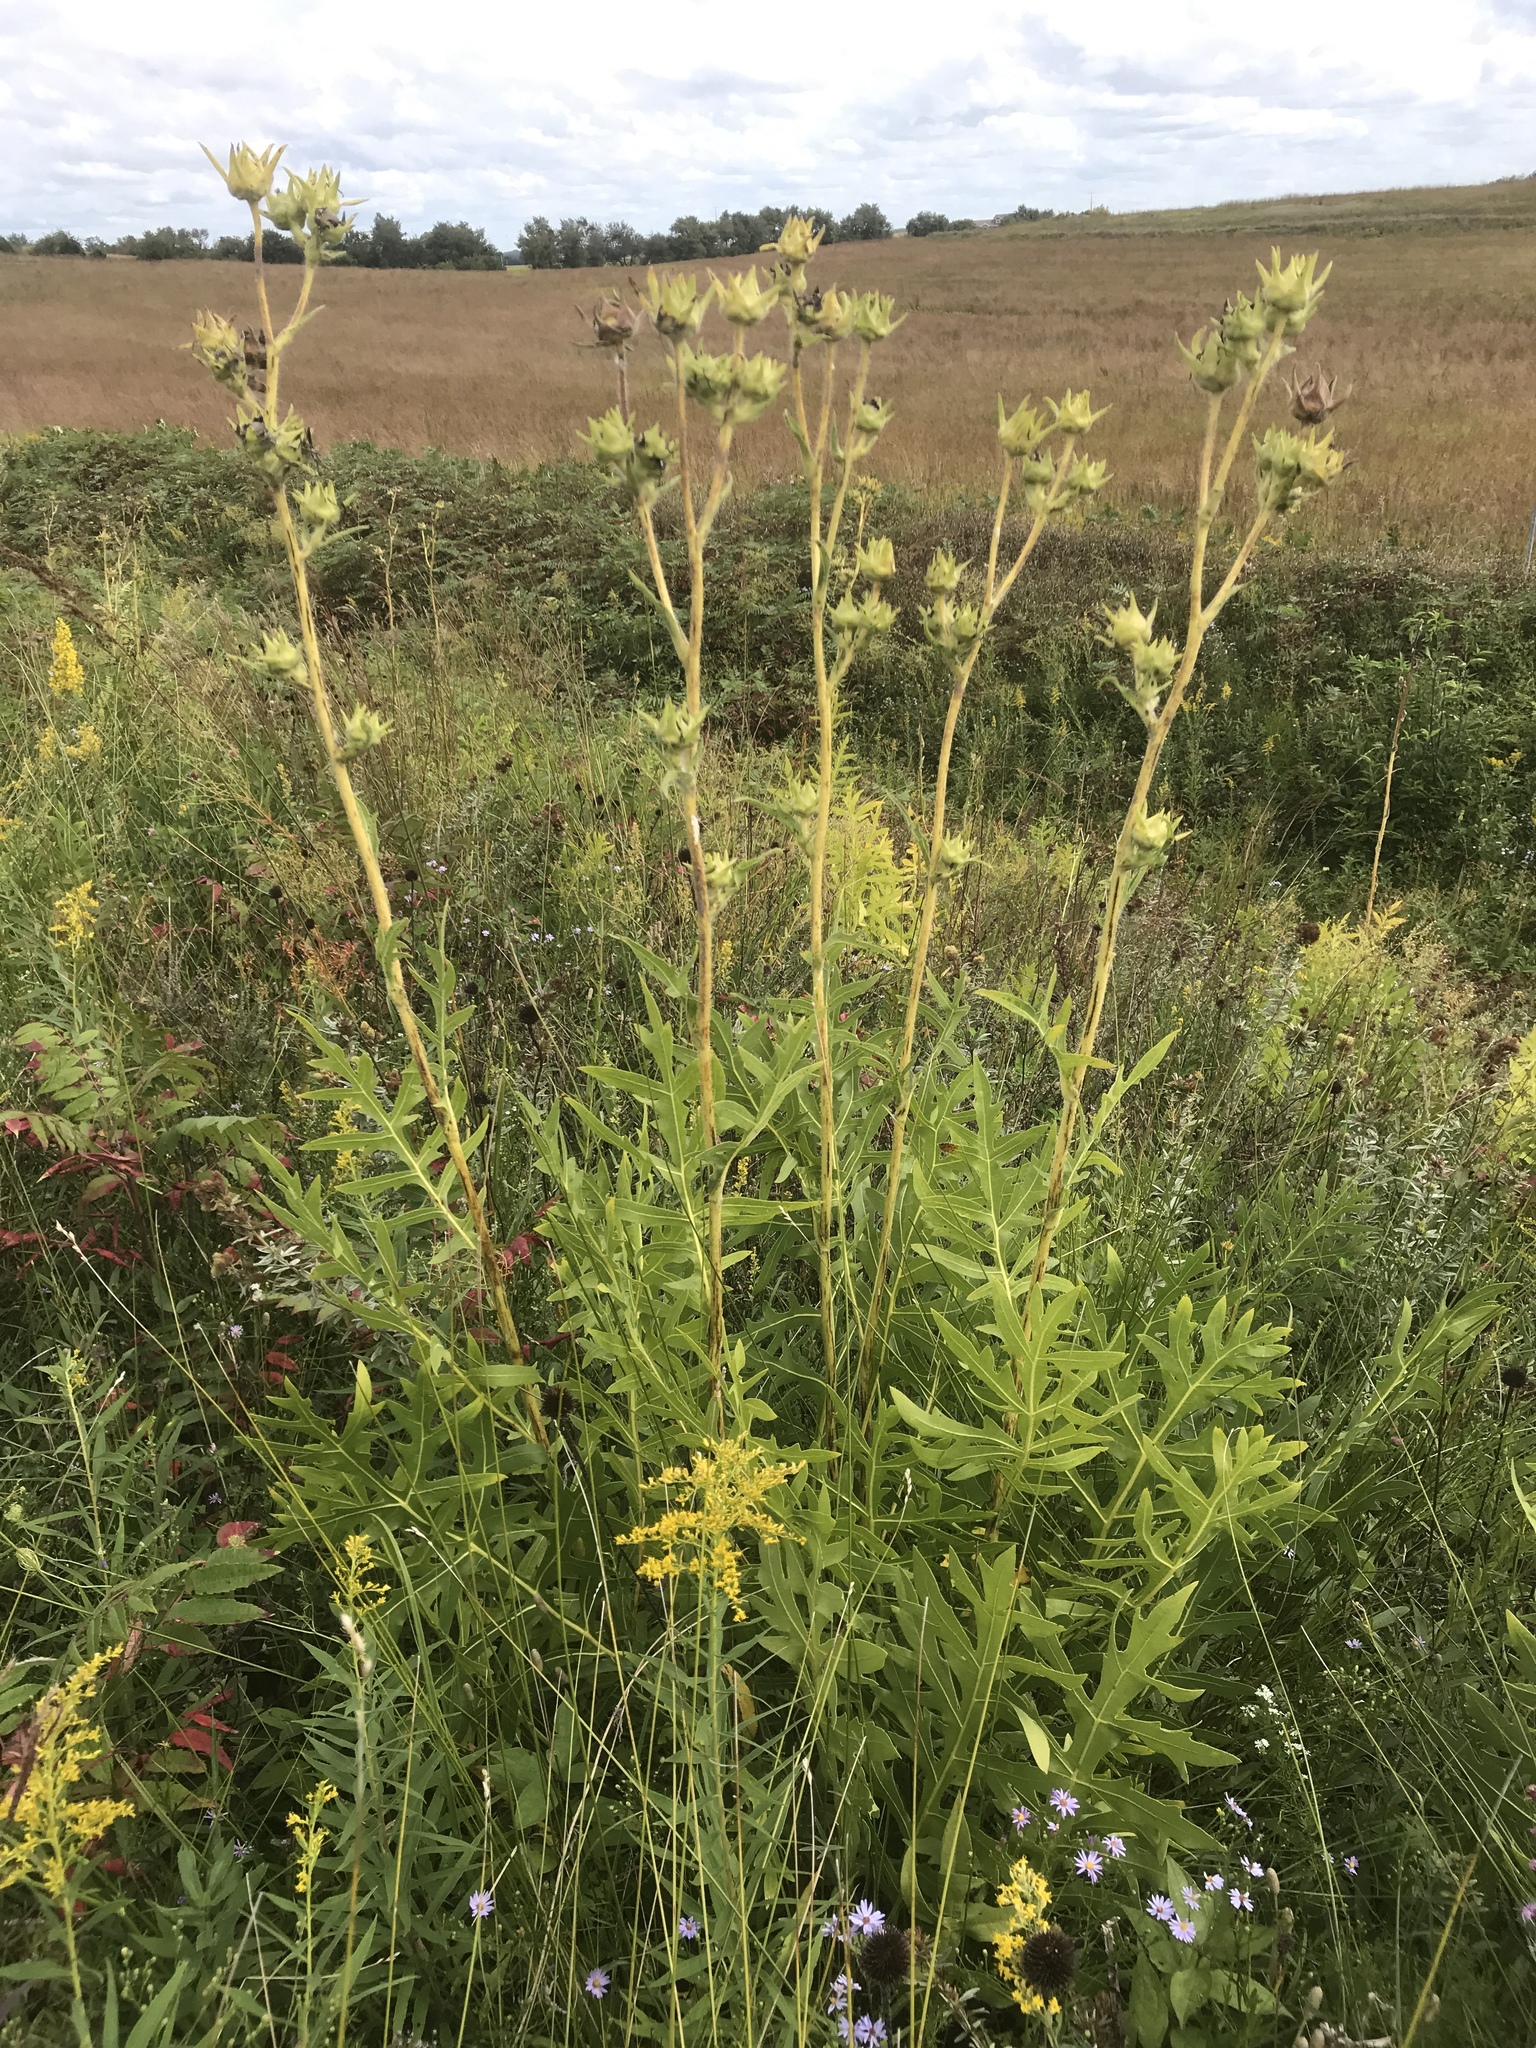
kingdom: Plantae
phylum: Tracheophyta
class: Magnoliopsida
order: Asterales
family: Asteraceae
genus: Silphium
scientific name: Silphium laciniatum
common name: Polarplant
